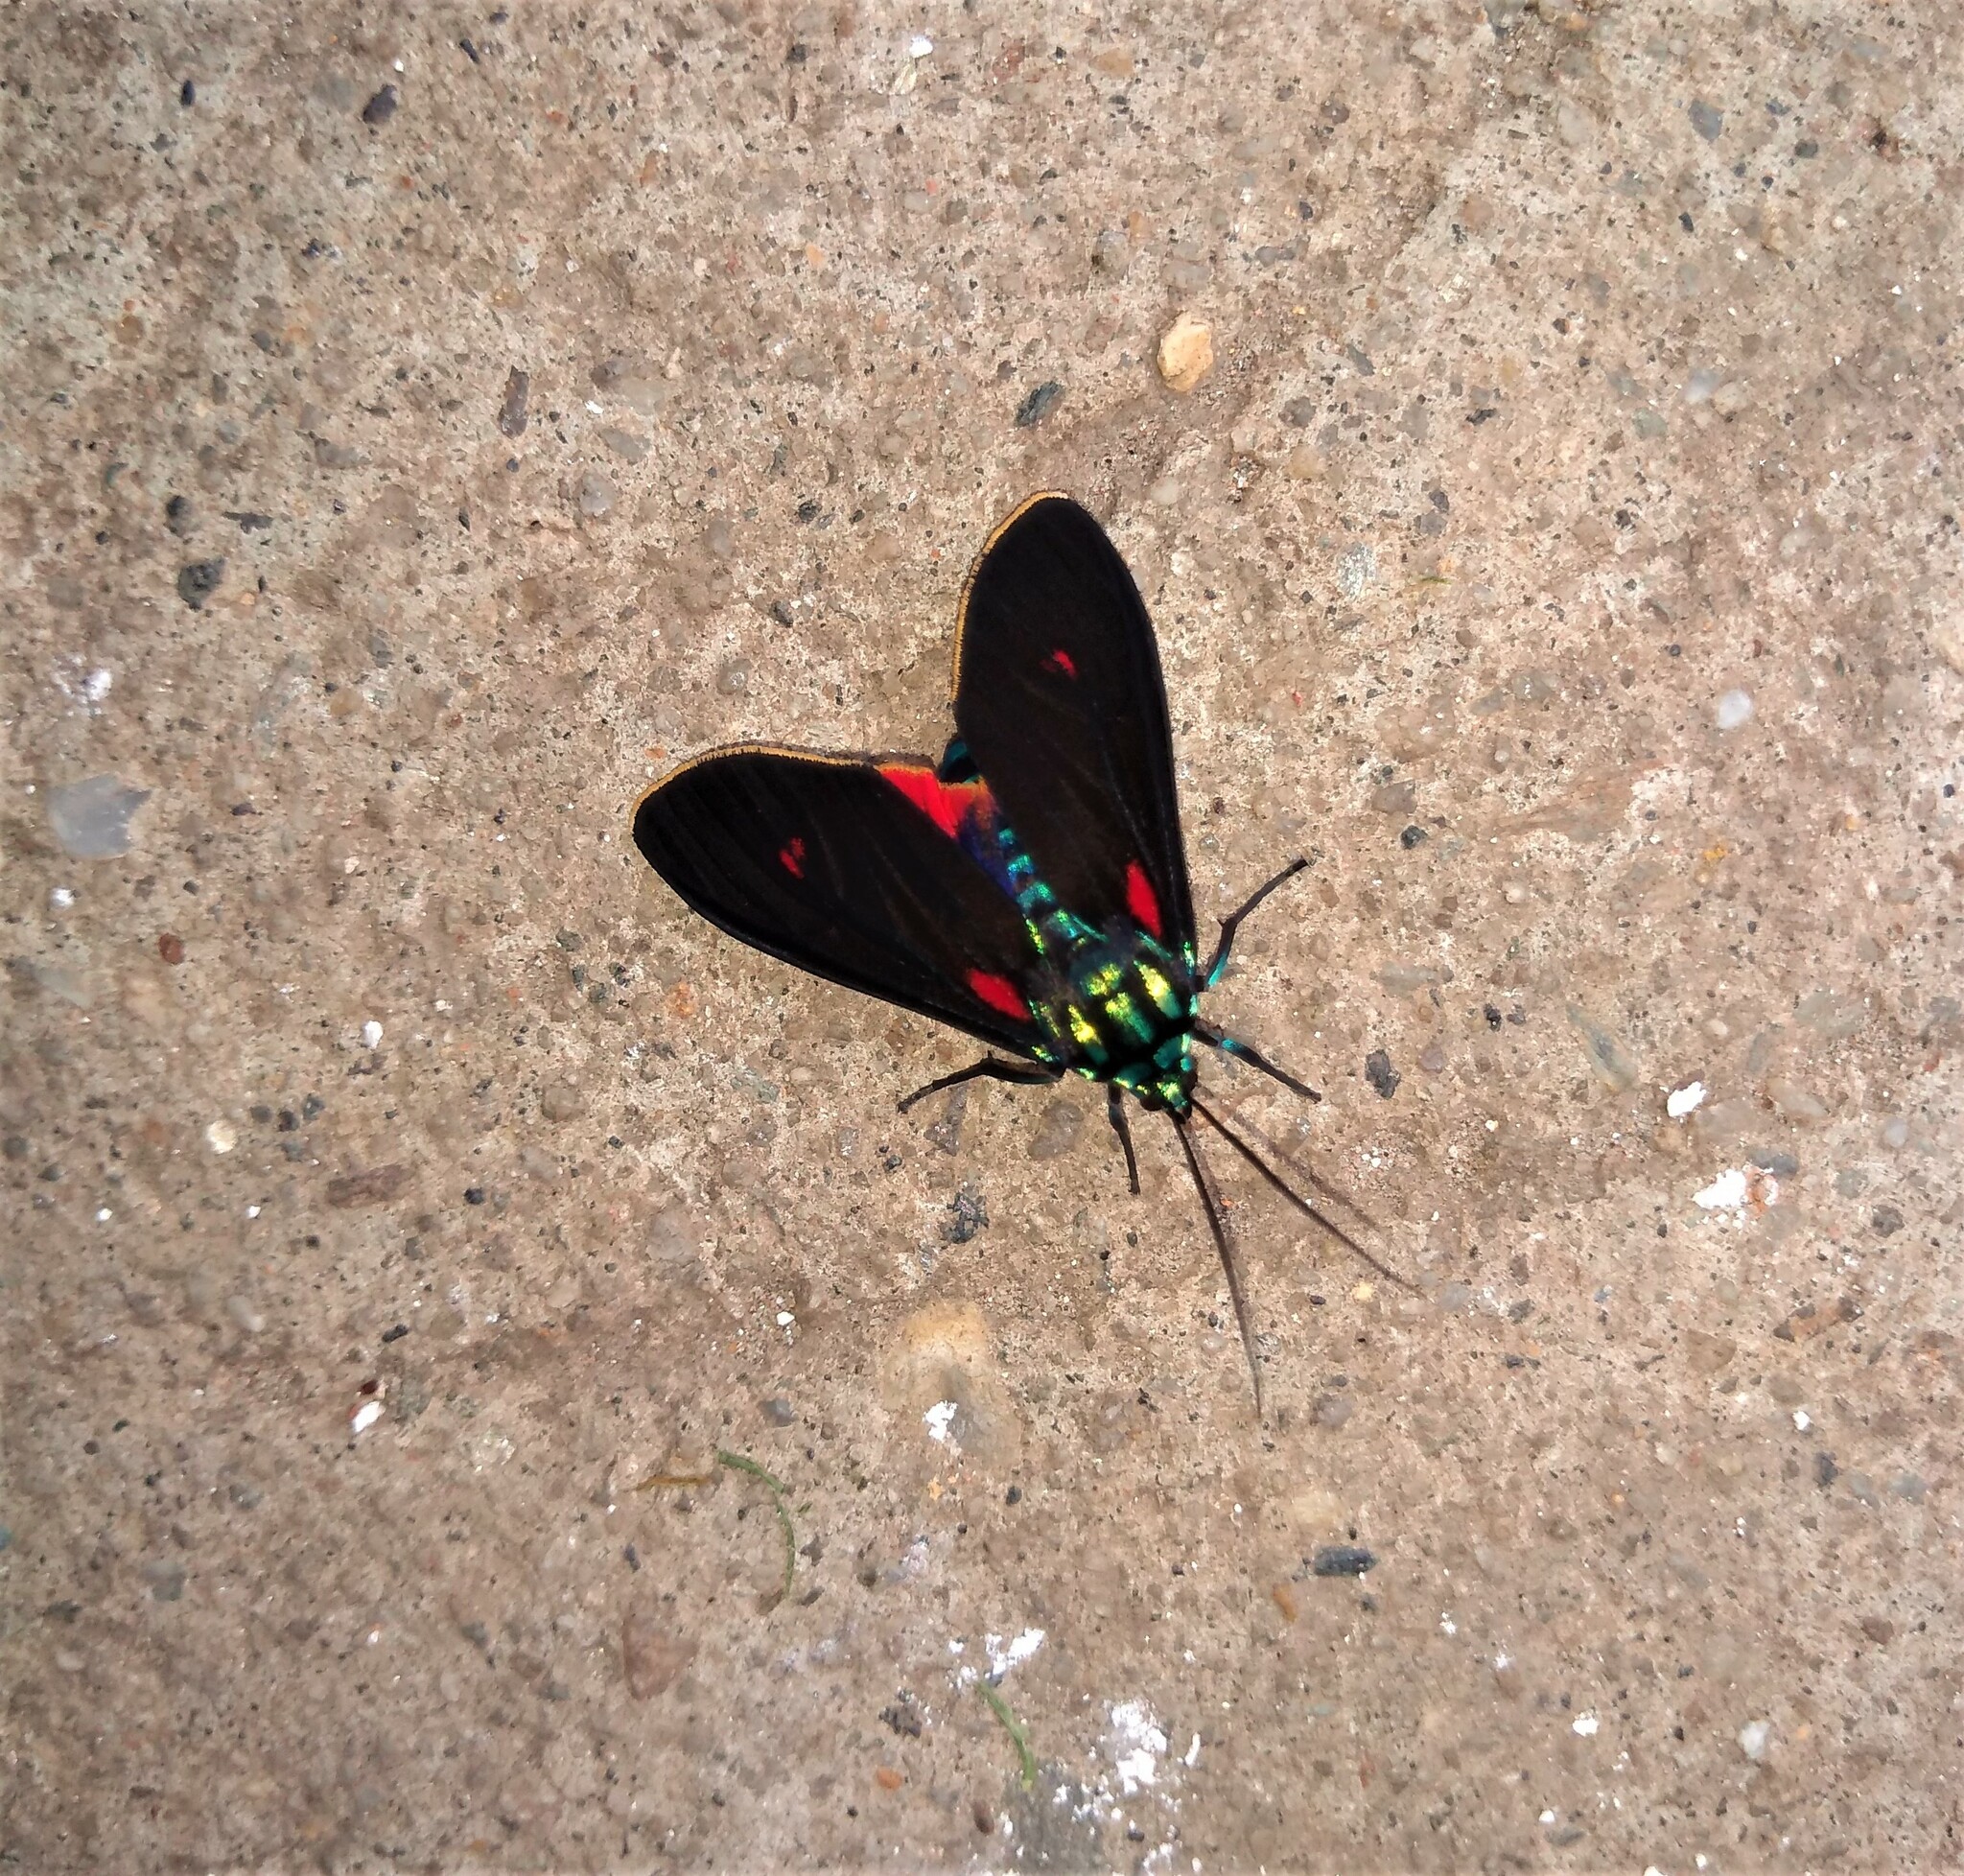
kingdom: Animalia
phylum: Arthropoda
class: Insecta
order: Lepidoptera
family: Erebidae
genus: Cyanopepla
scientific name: Cyanopepla micans
